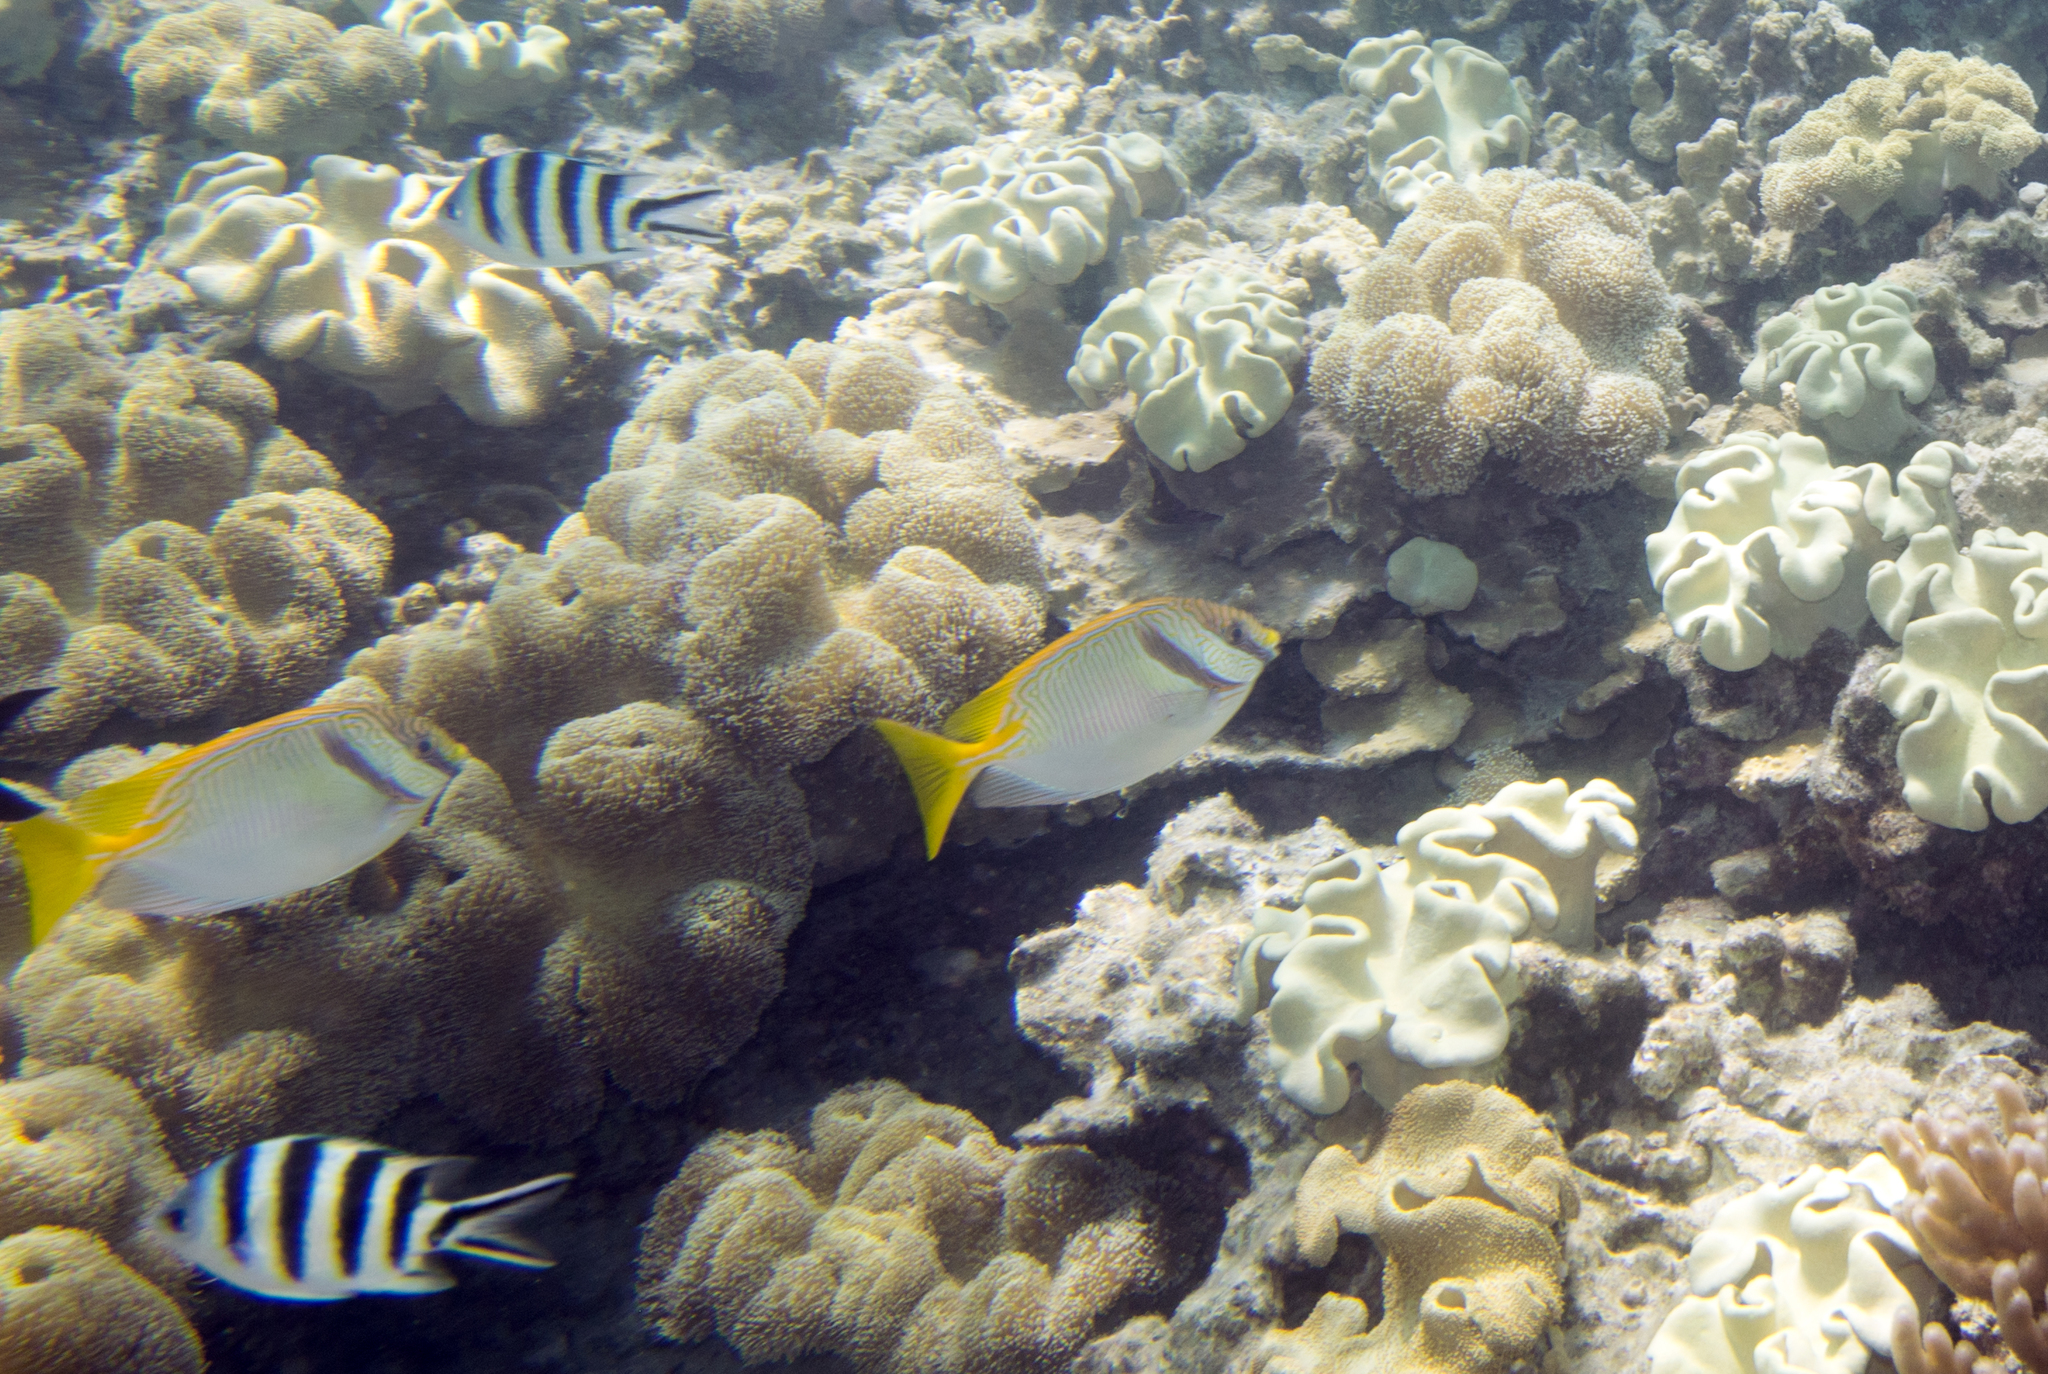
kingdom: Animalia
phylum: Chordata
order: Perciformes
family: Siganidae
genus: Siganus
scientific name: Siganus doliatus
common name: Barred spinefoot
